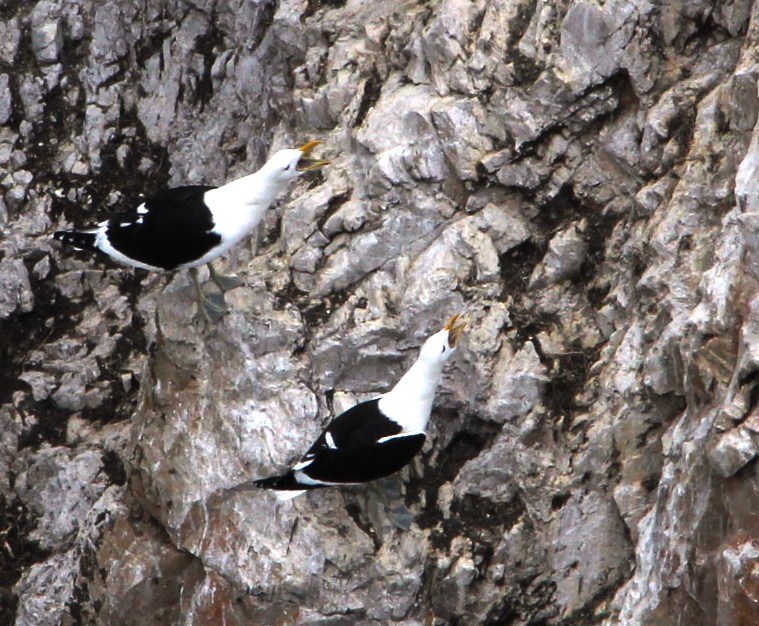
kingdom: Animalia
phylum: Chordata
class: Aves
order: Charadriiformes
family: Laridae
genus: Larus
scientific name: Larus dominicanus
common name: Kelp gull
